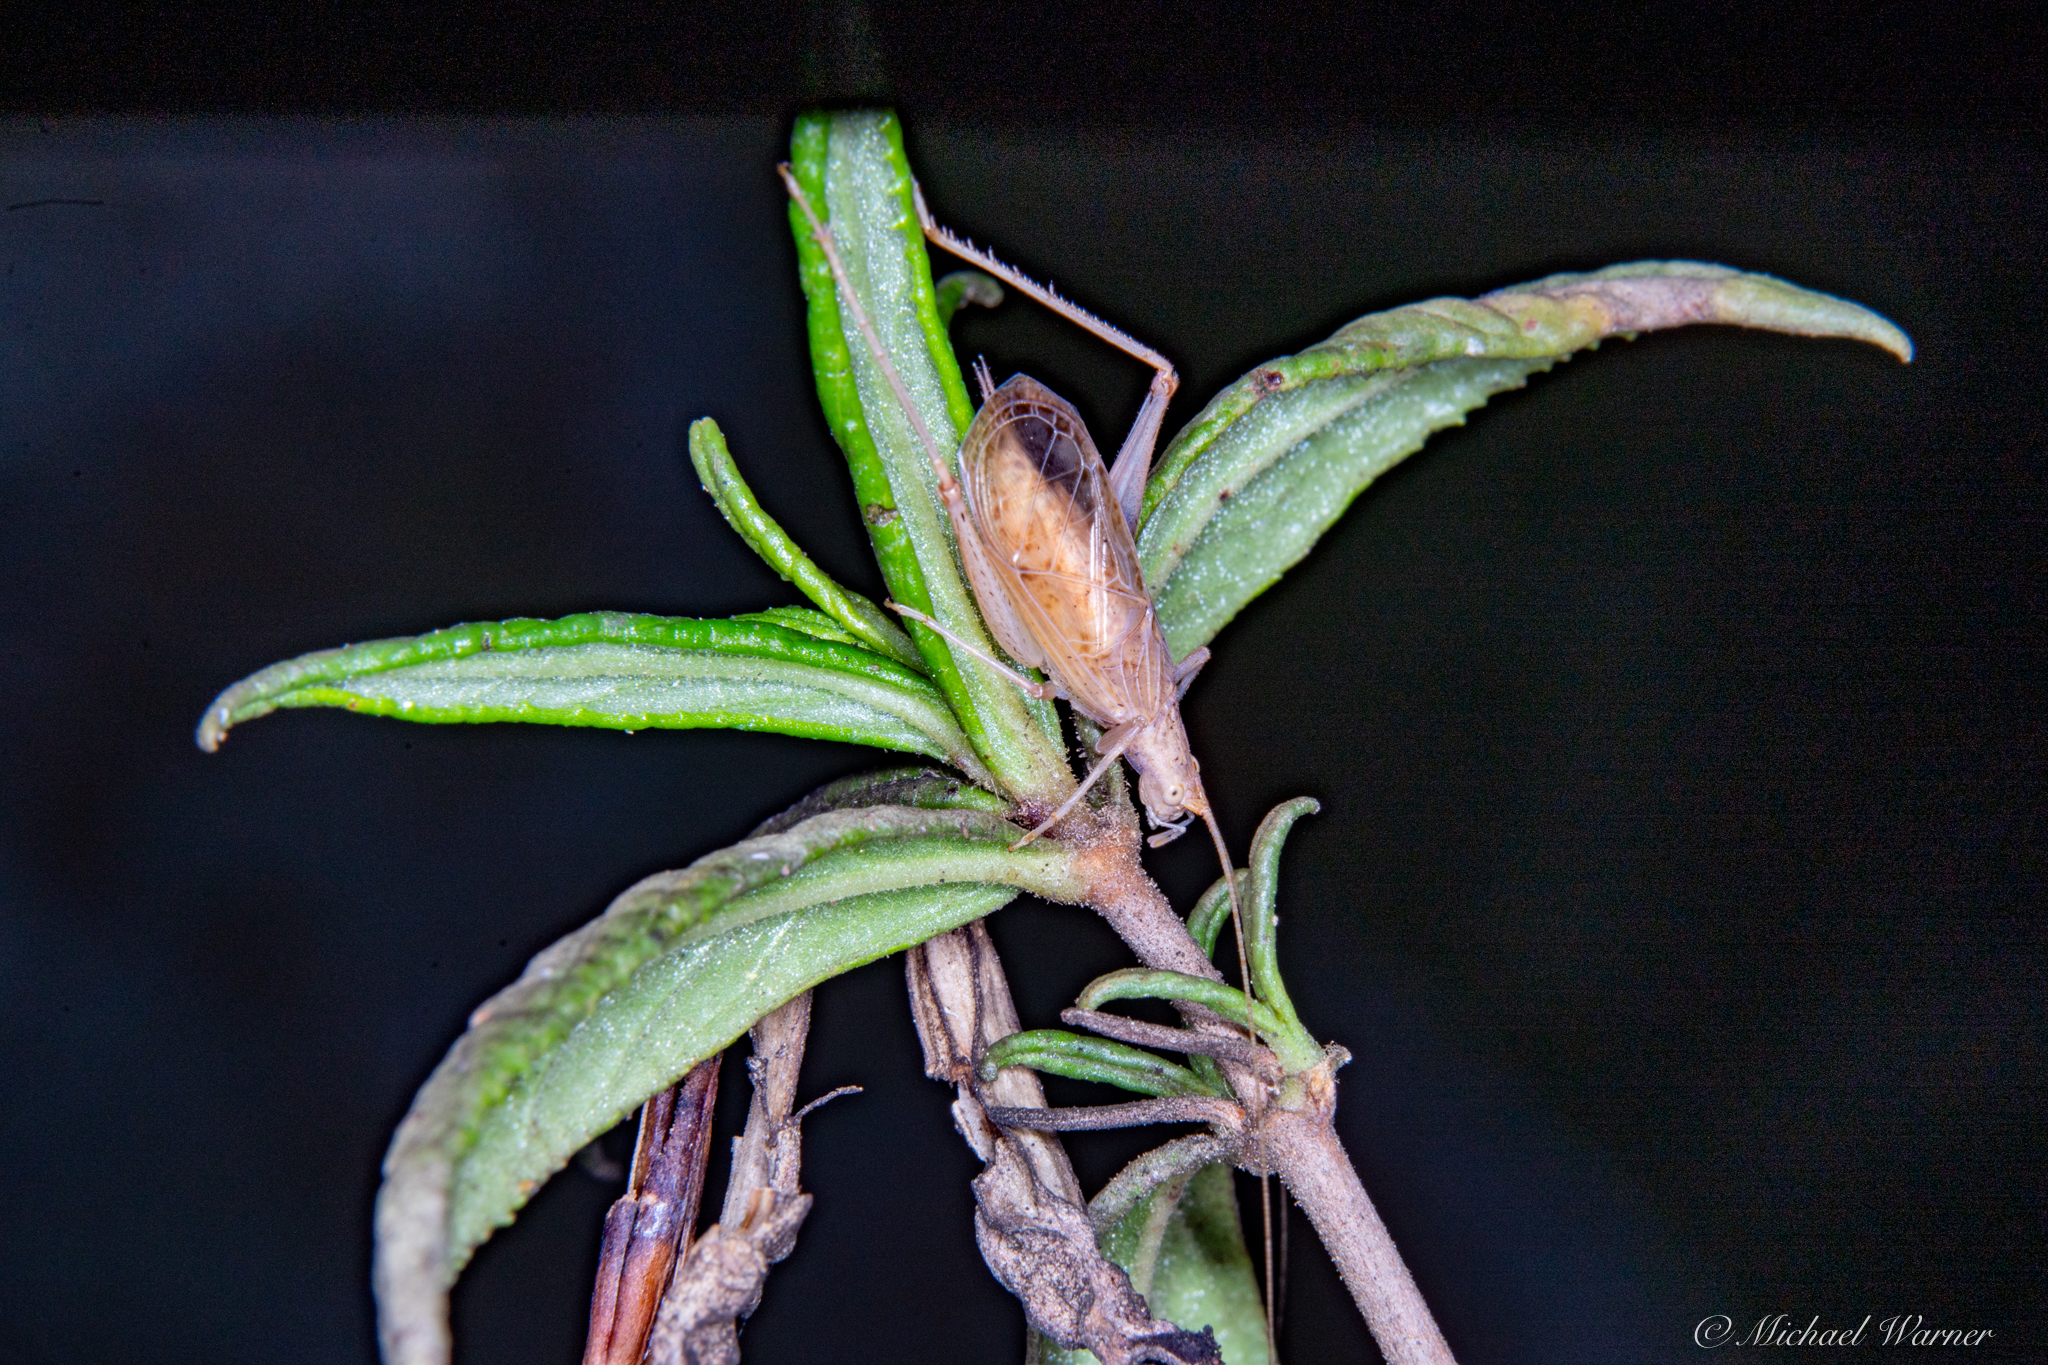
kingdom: Animalia
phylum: Arthropoda
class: Insecta
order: Orthoptera
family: Gryllidae
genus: Oecanthus
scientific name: Oecanthus californicus
